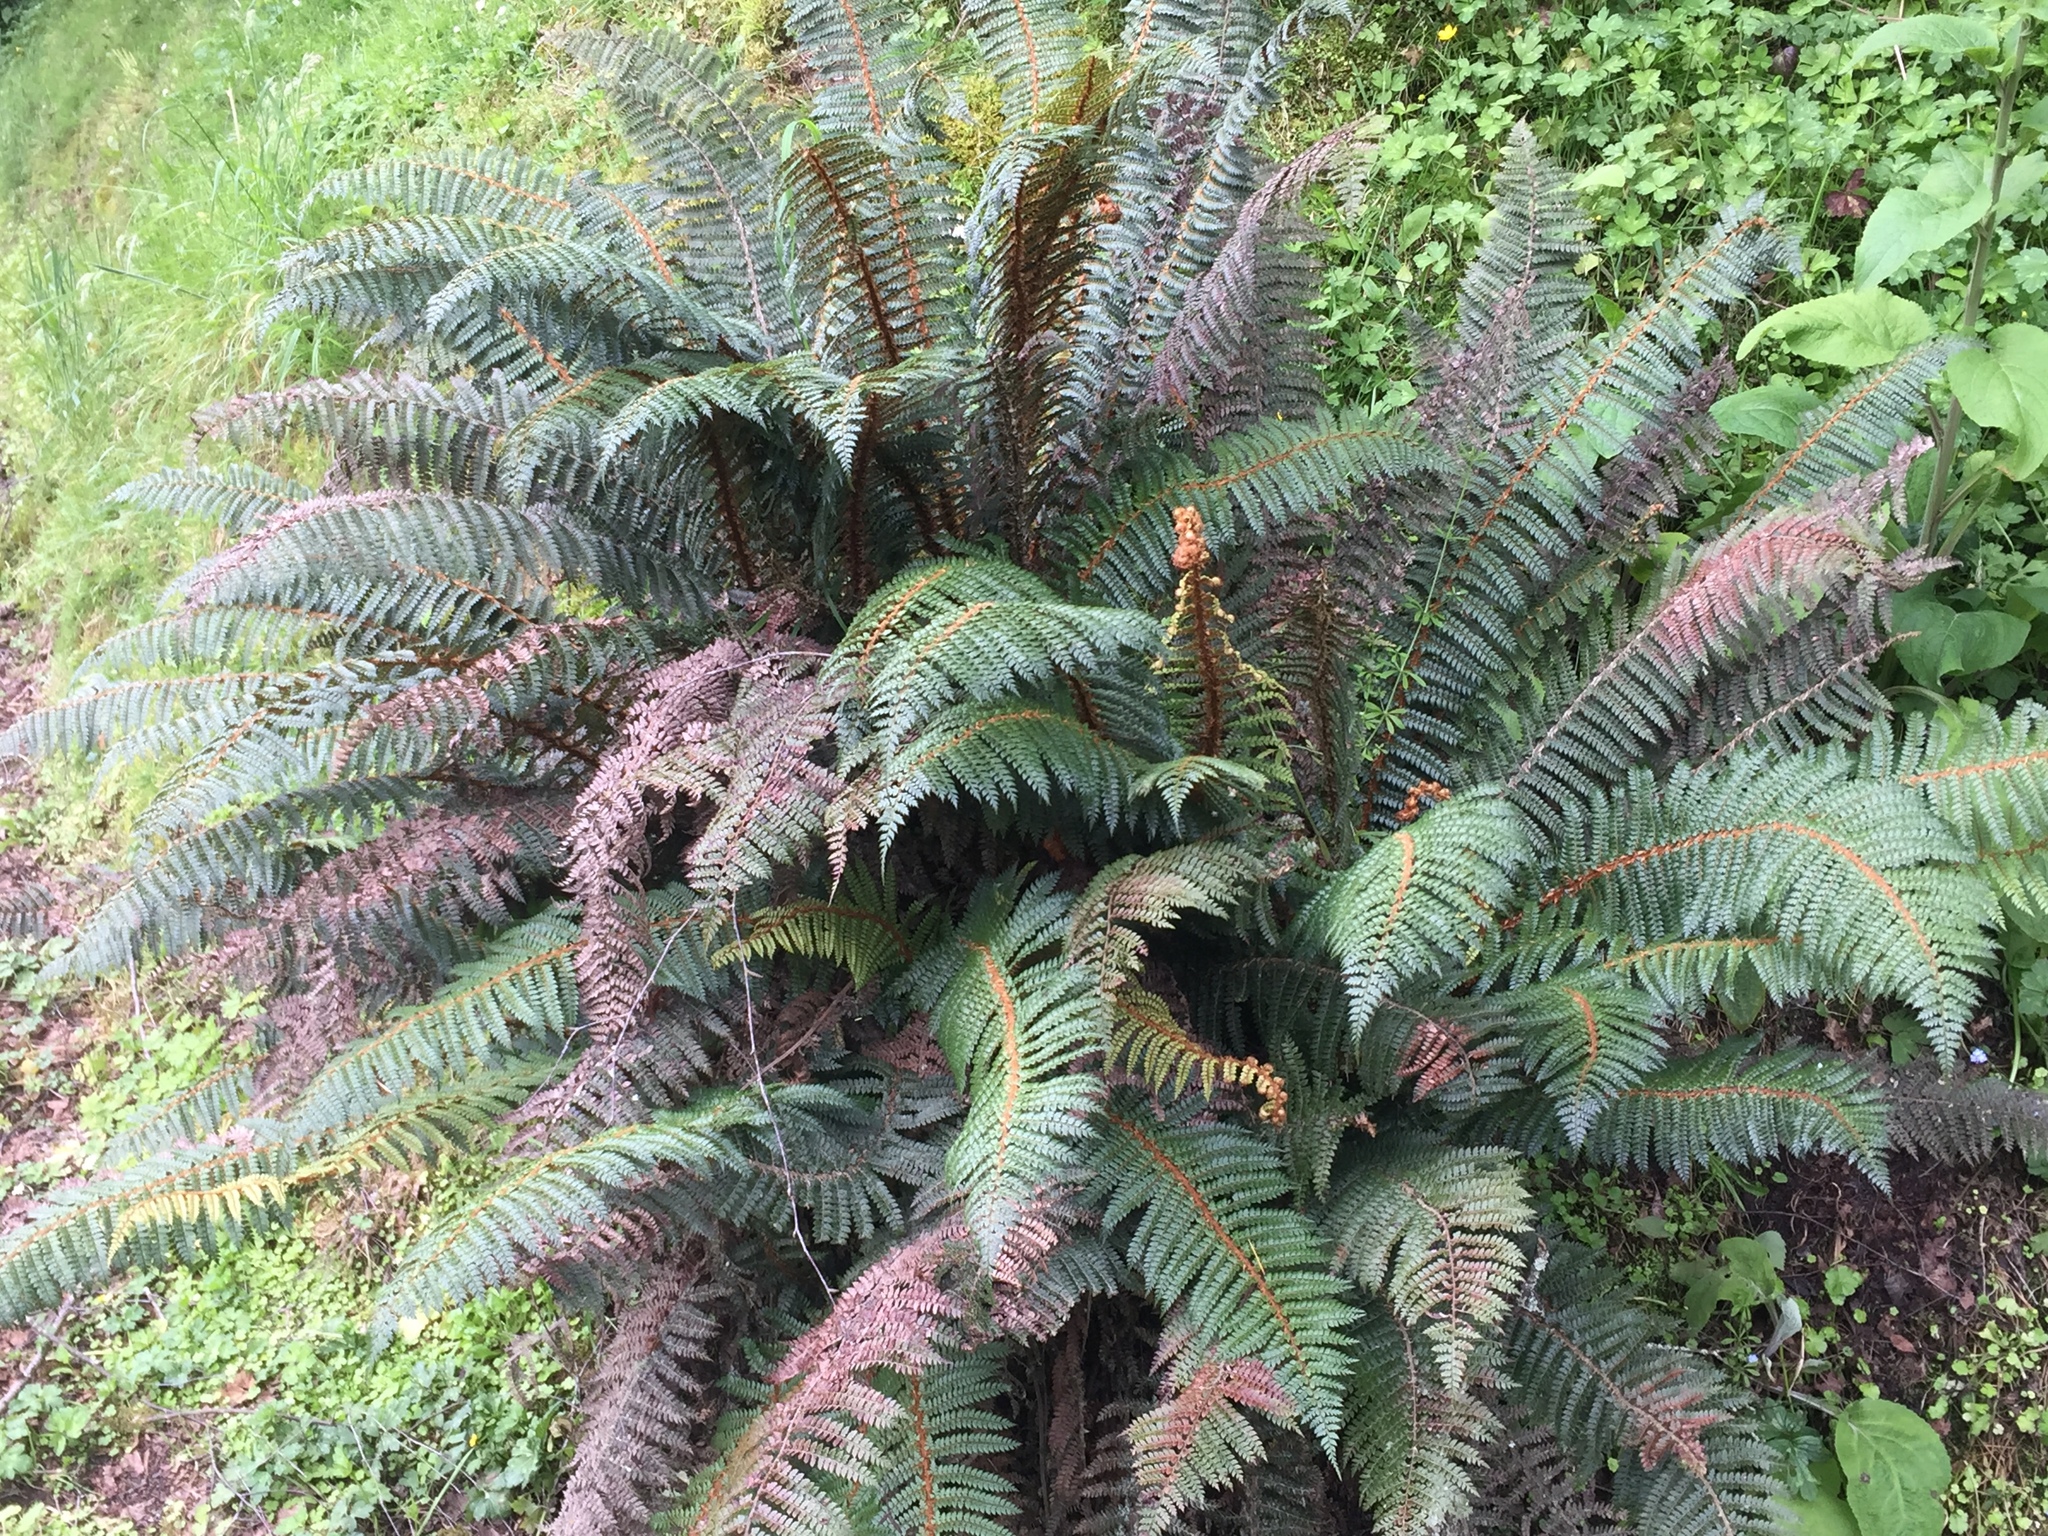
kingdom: Plantae
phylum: Tracheophyta
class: Polypodiopsida
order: Polypodiales
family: Dryopteridaceae
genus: Polystichum
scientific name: Polystichum vestitum
